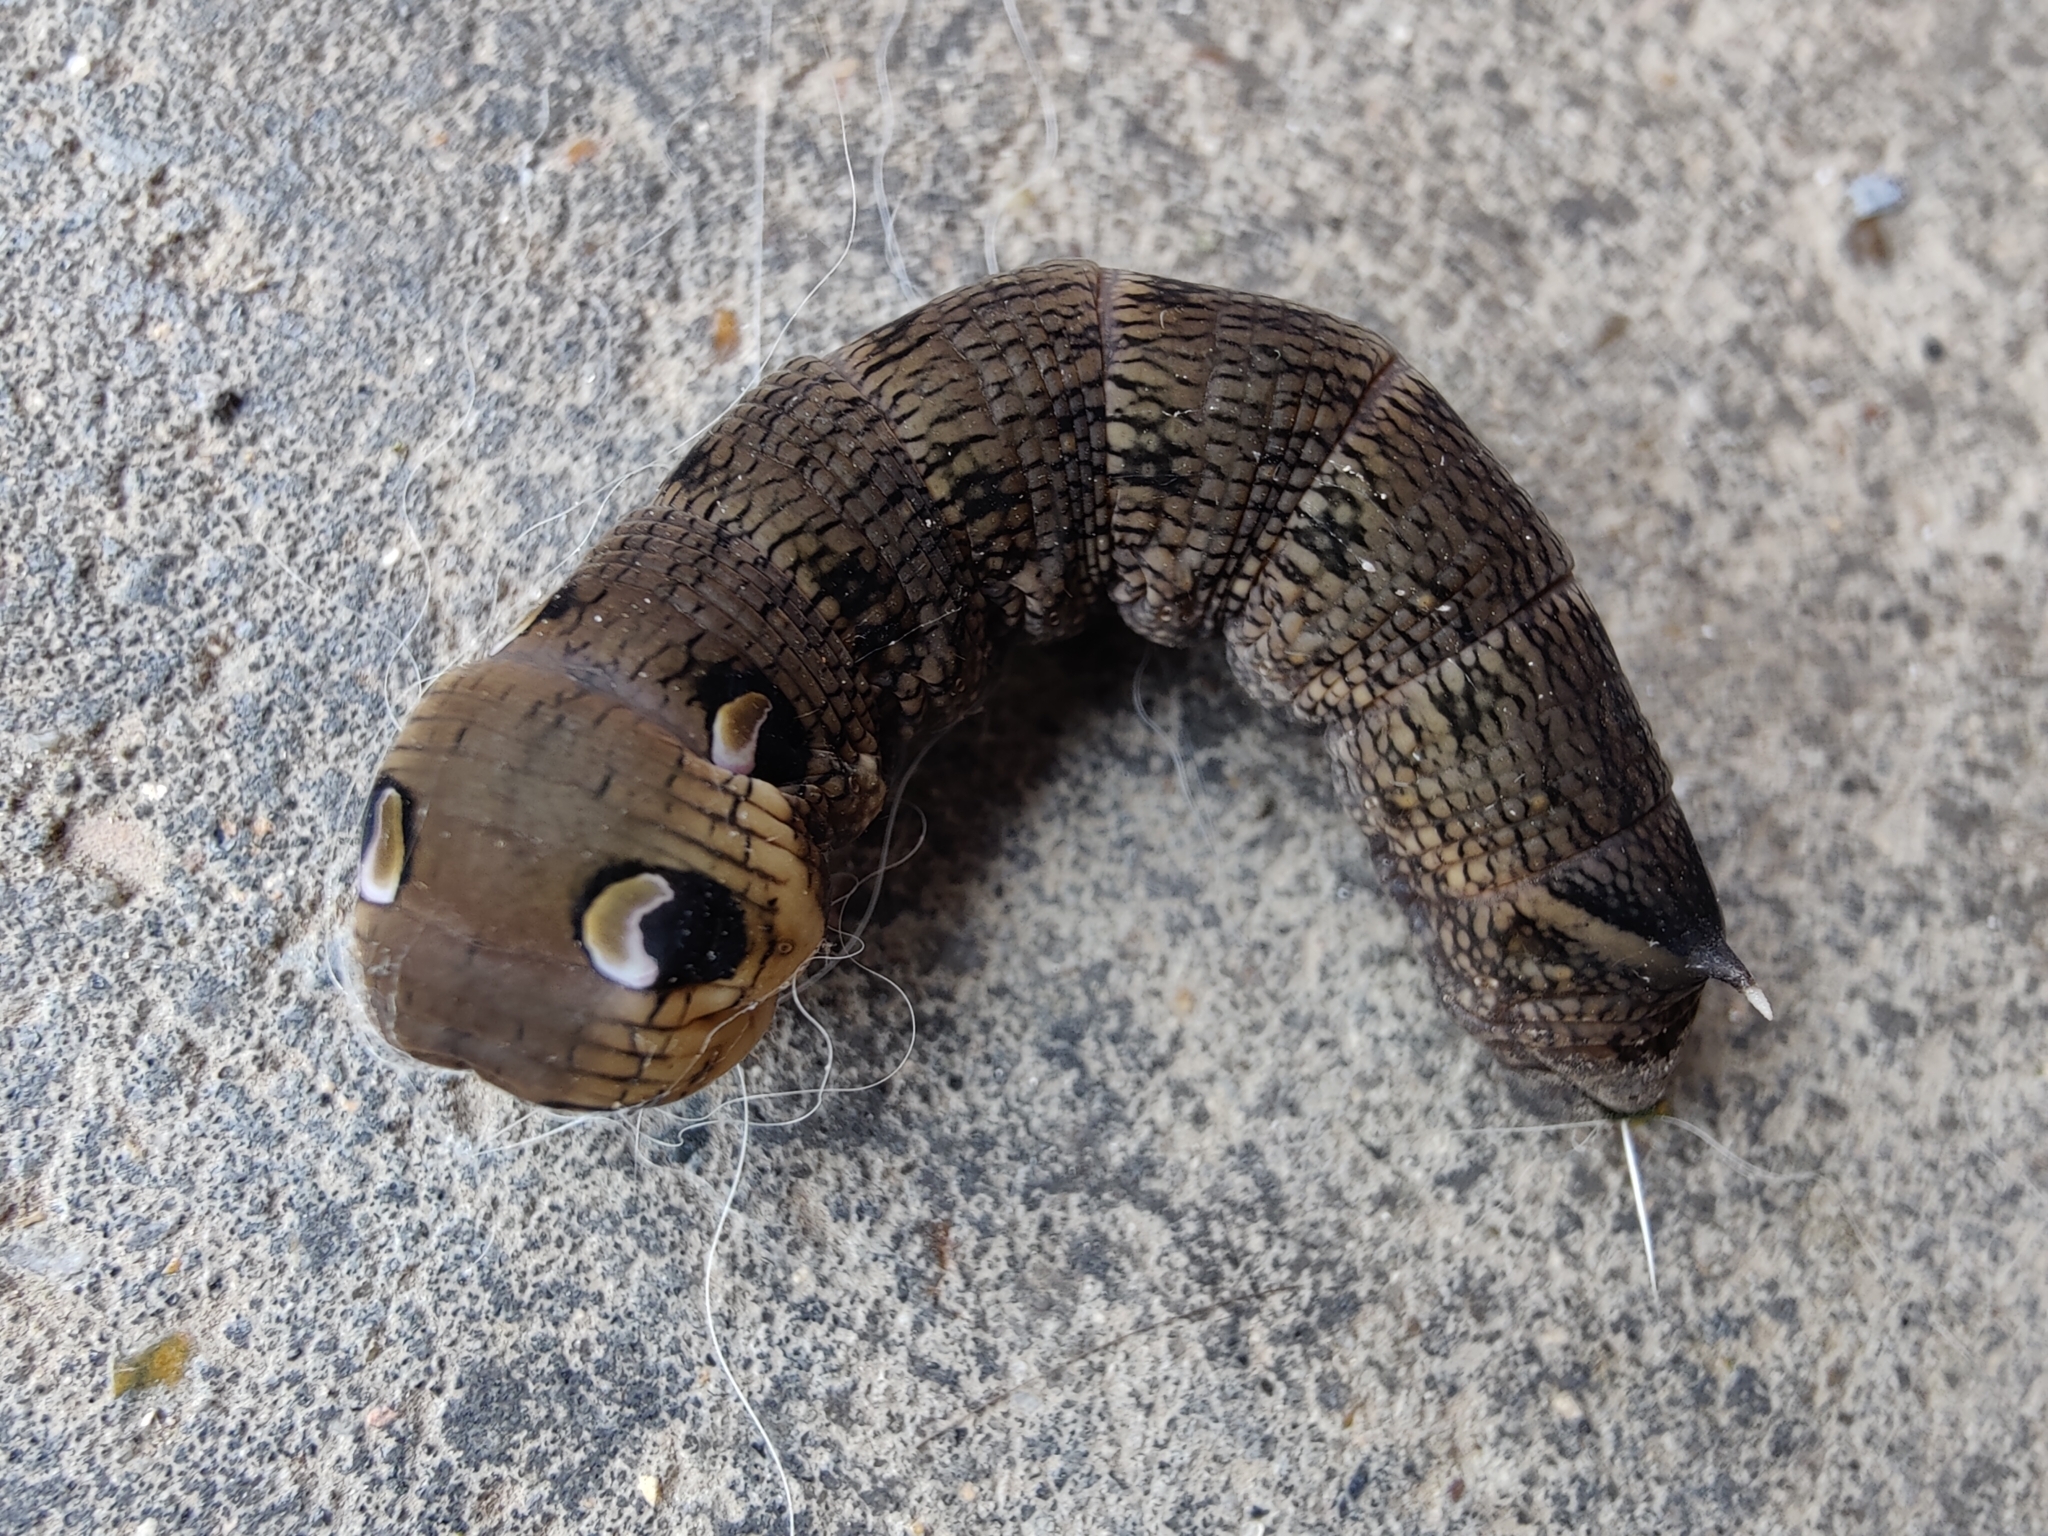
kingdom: Animalia
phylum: Arthropoda
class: Insecta
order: Lepidoptera
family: Sphingidae
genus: Deilephila
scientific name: Deilephila elpenor
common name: Elephant hawk-moth
